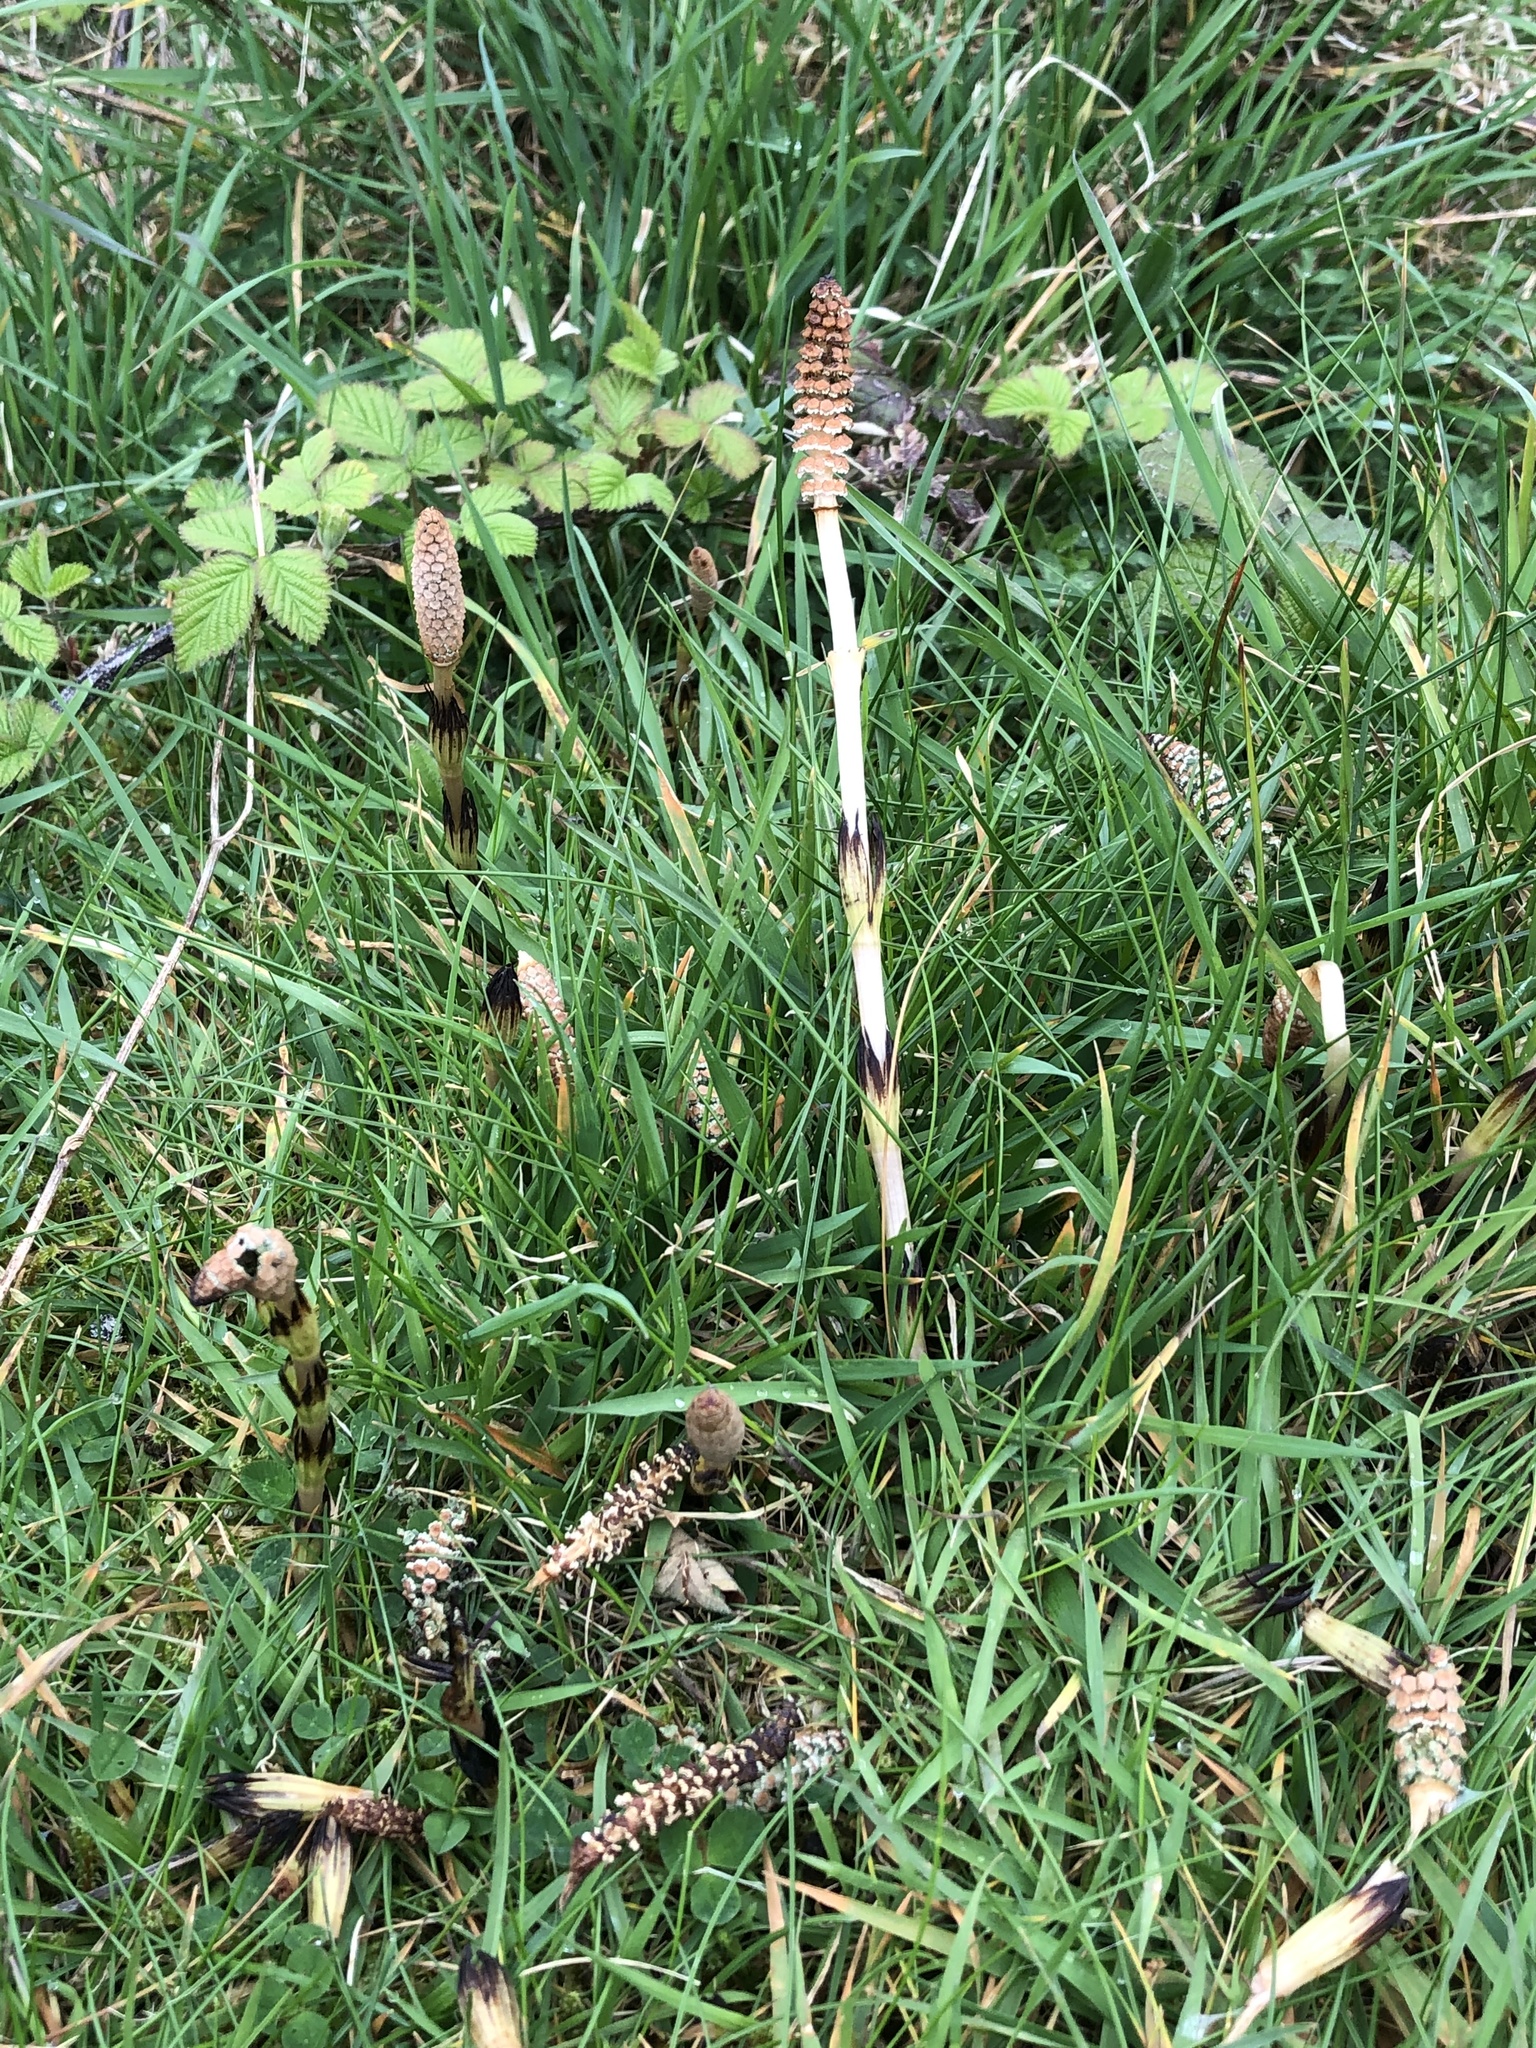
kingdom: Plantae
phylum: Tracheophyta
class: Polypodiopsida
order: Equisetales
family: Equisetaceae
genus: Equisetum
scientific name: Equisetum arvense
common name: Field horsetail
